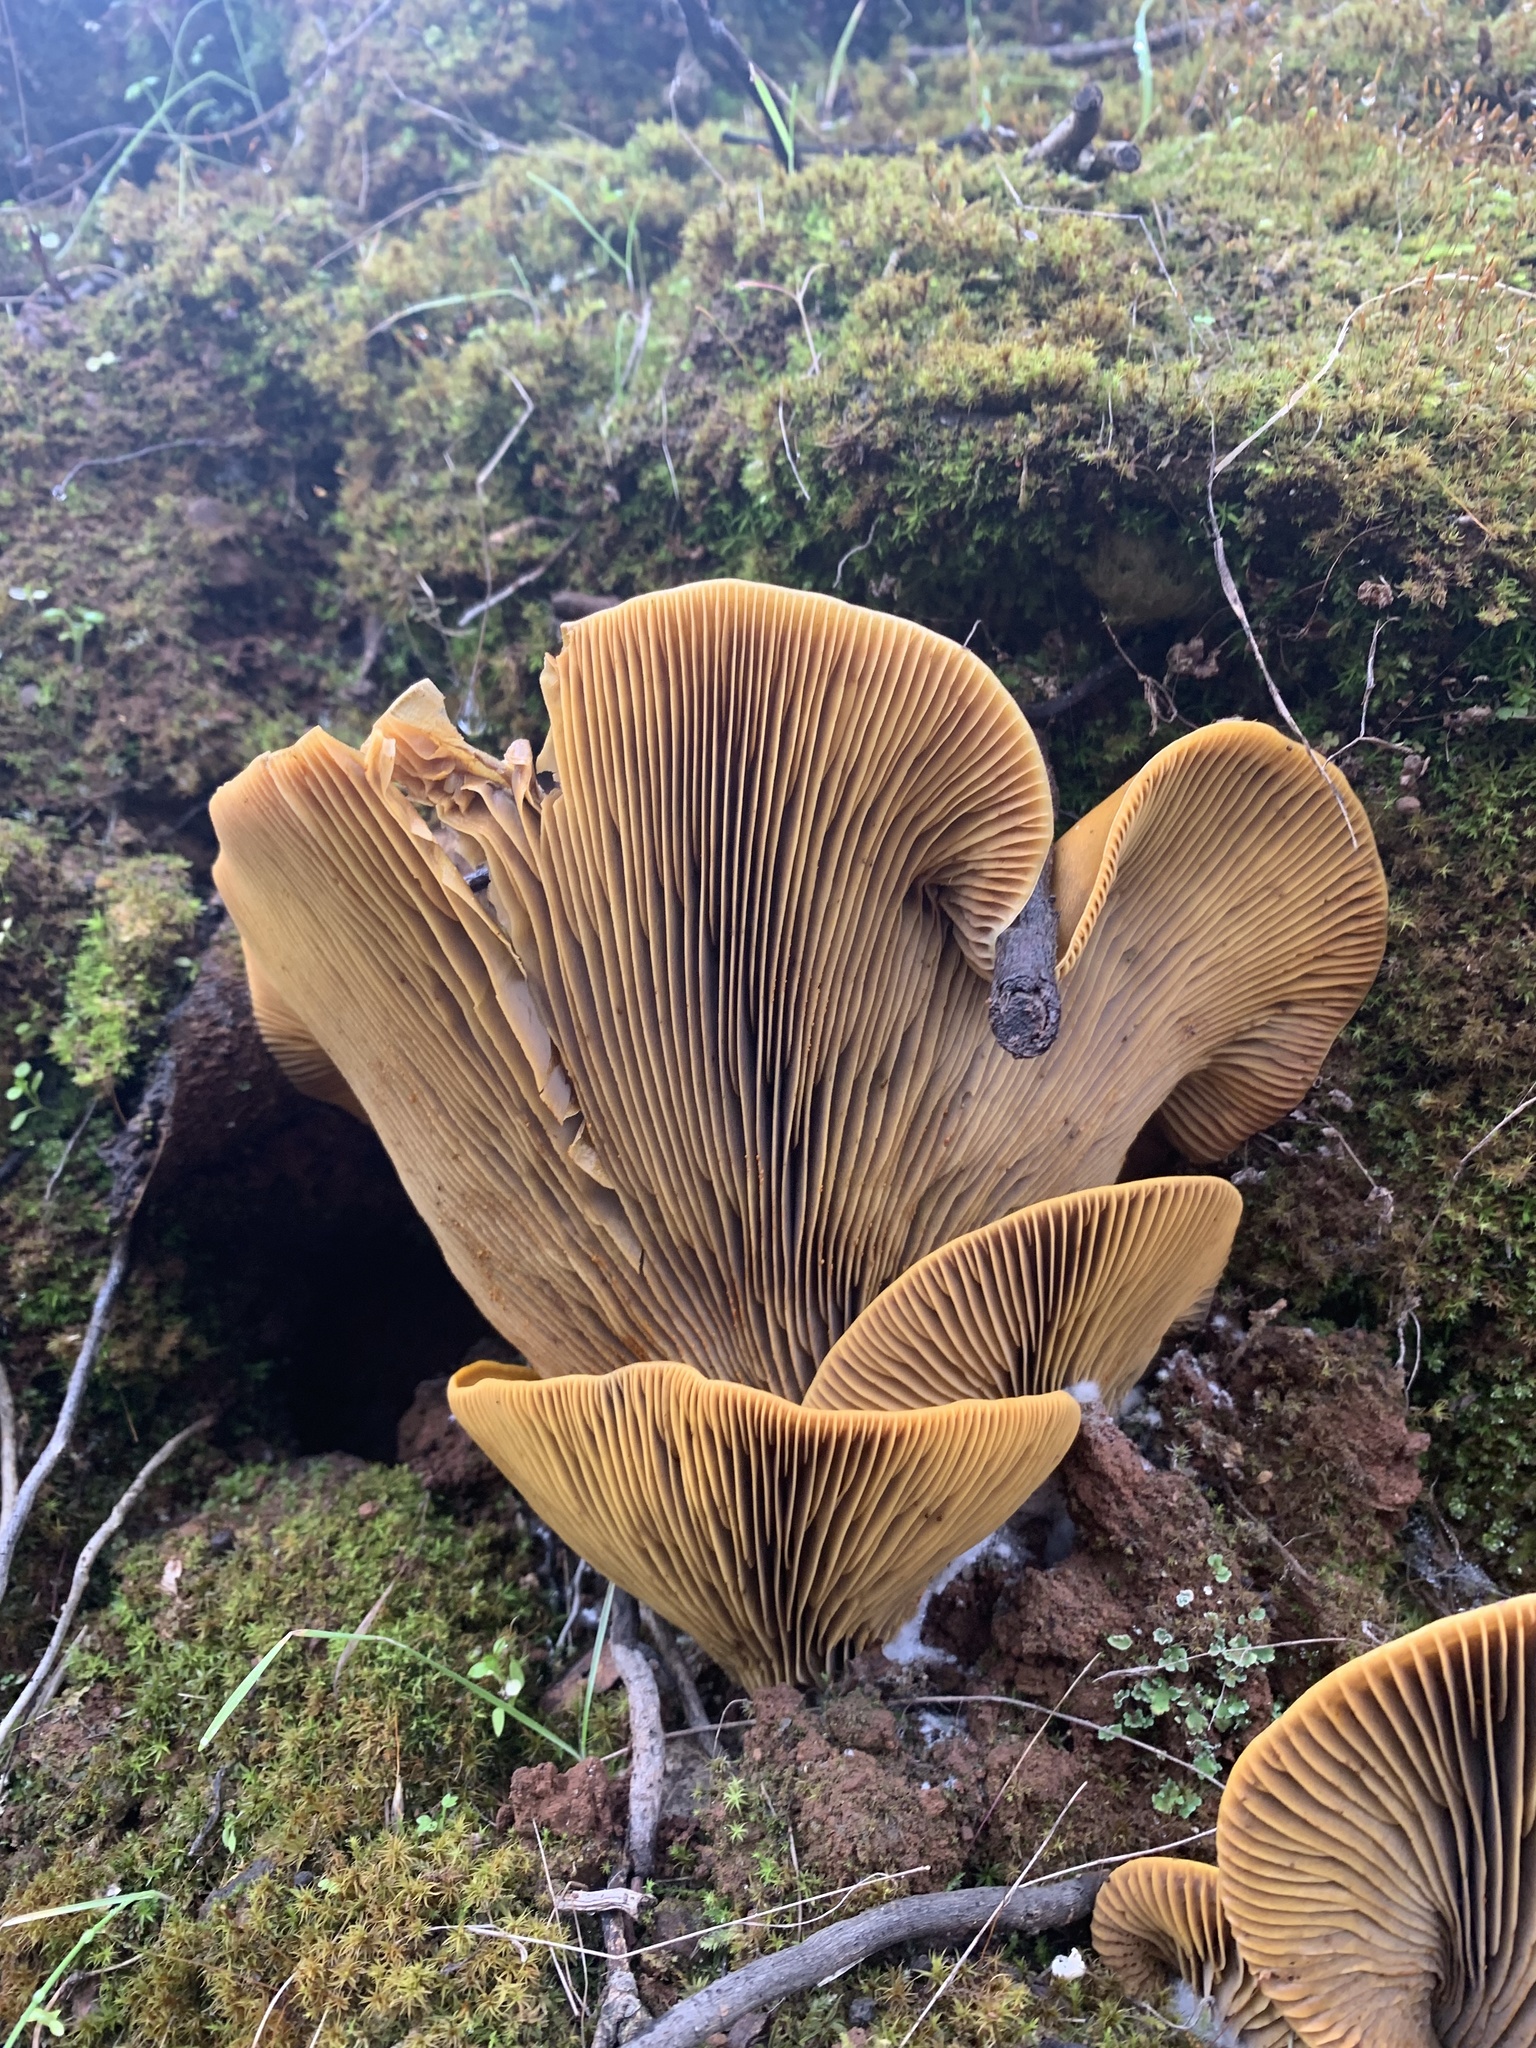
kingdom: Fungi
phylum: Basidiomycota
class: Agaricomycetes
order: Agaricales
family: Omphalotaceae
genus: Omphalotus
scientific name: Omphalotus olivascens
